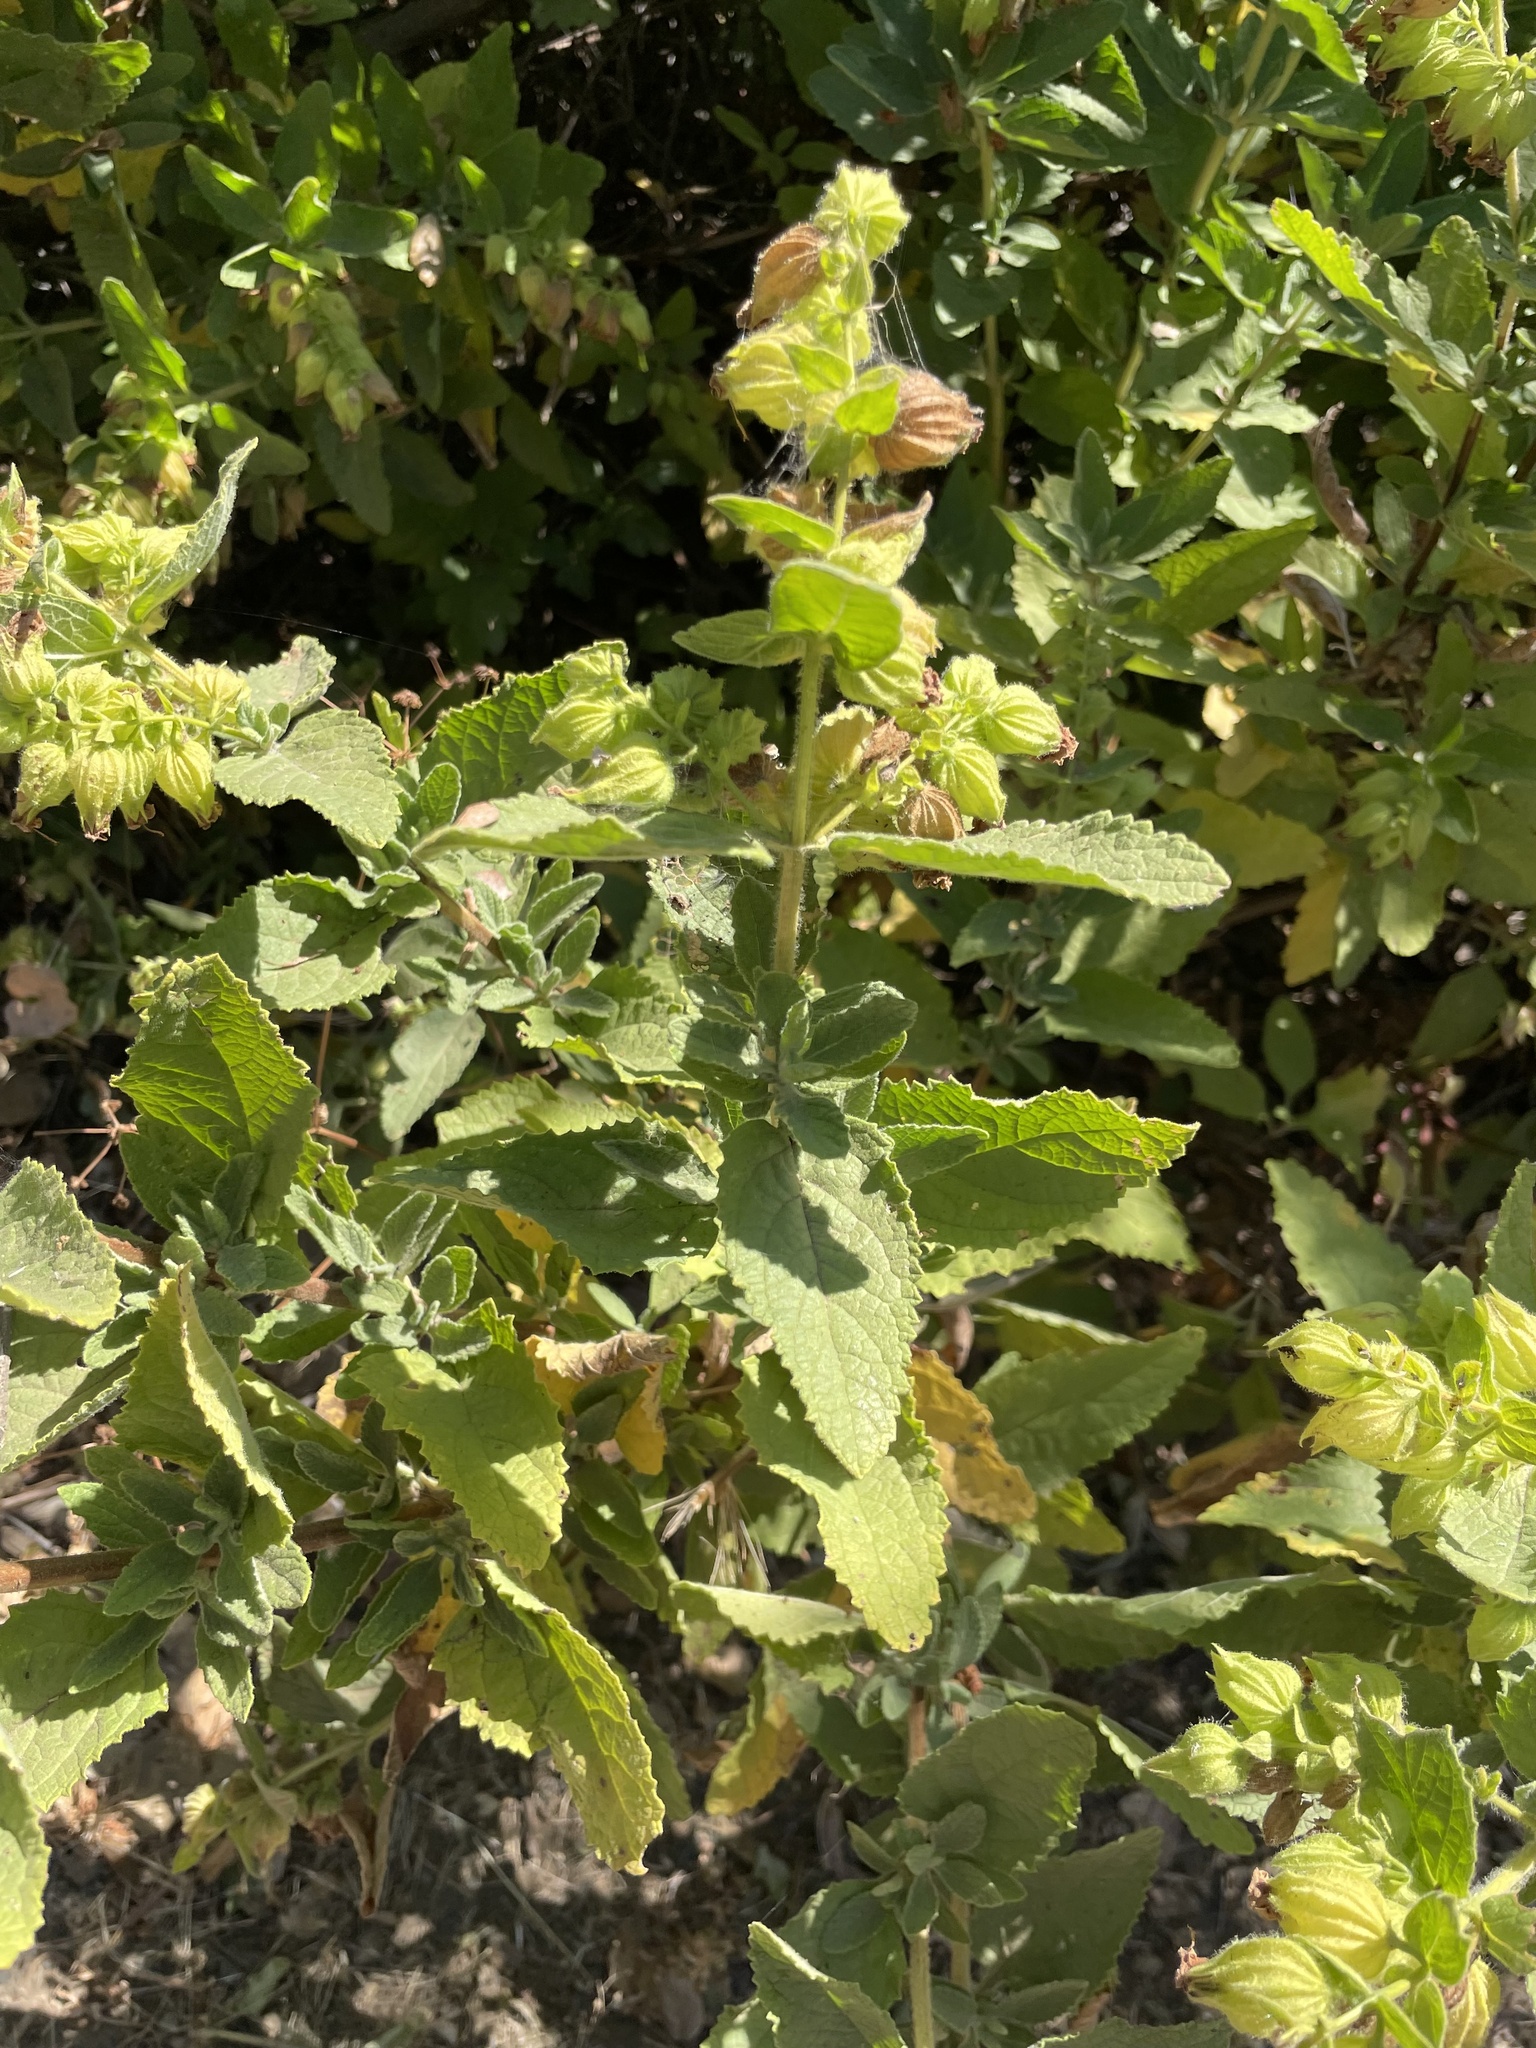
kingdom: Plantae
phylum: Tracheophyta
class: Magnoliopsida
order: Lamiales
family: Lamiaceae
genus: Lepechinia
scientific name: Lepechinia calycina
